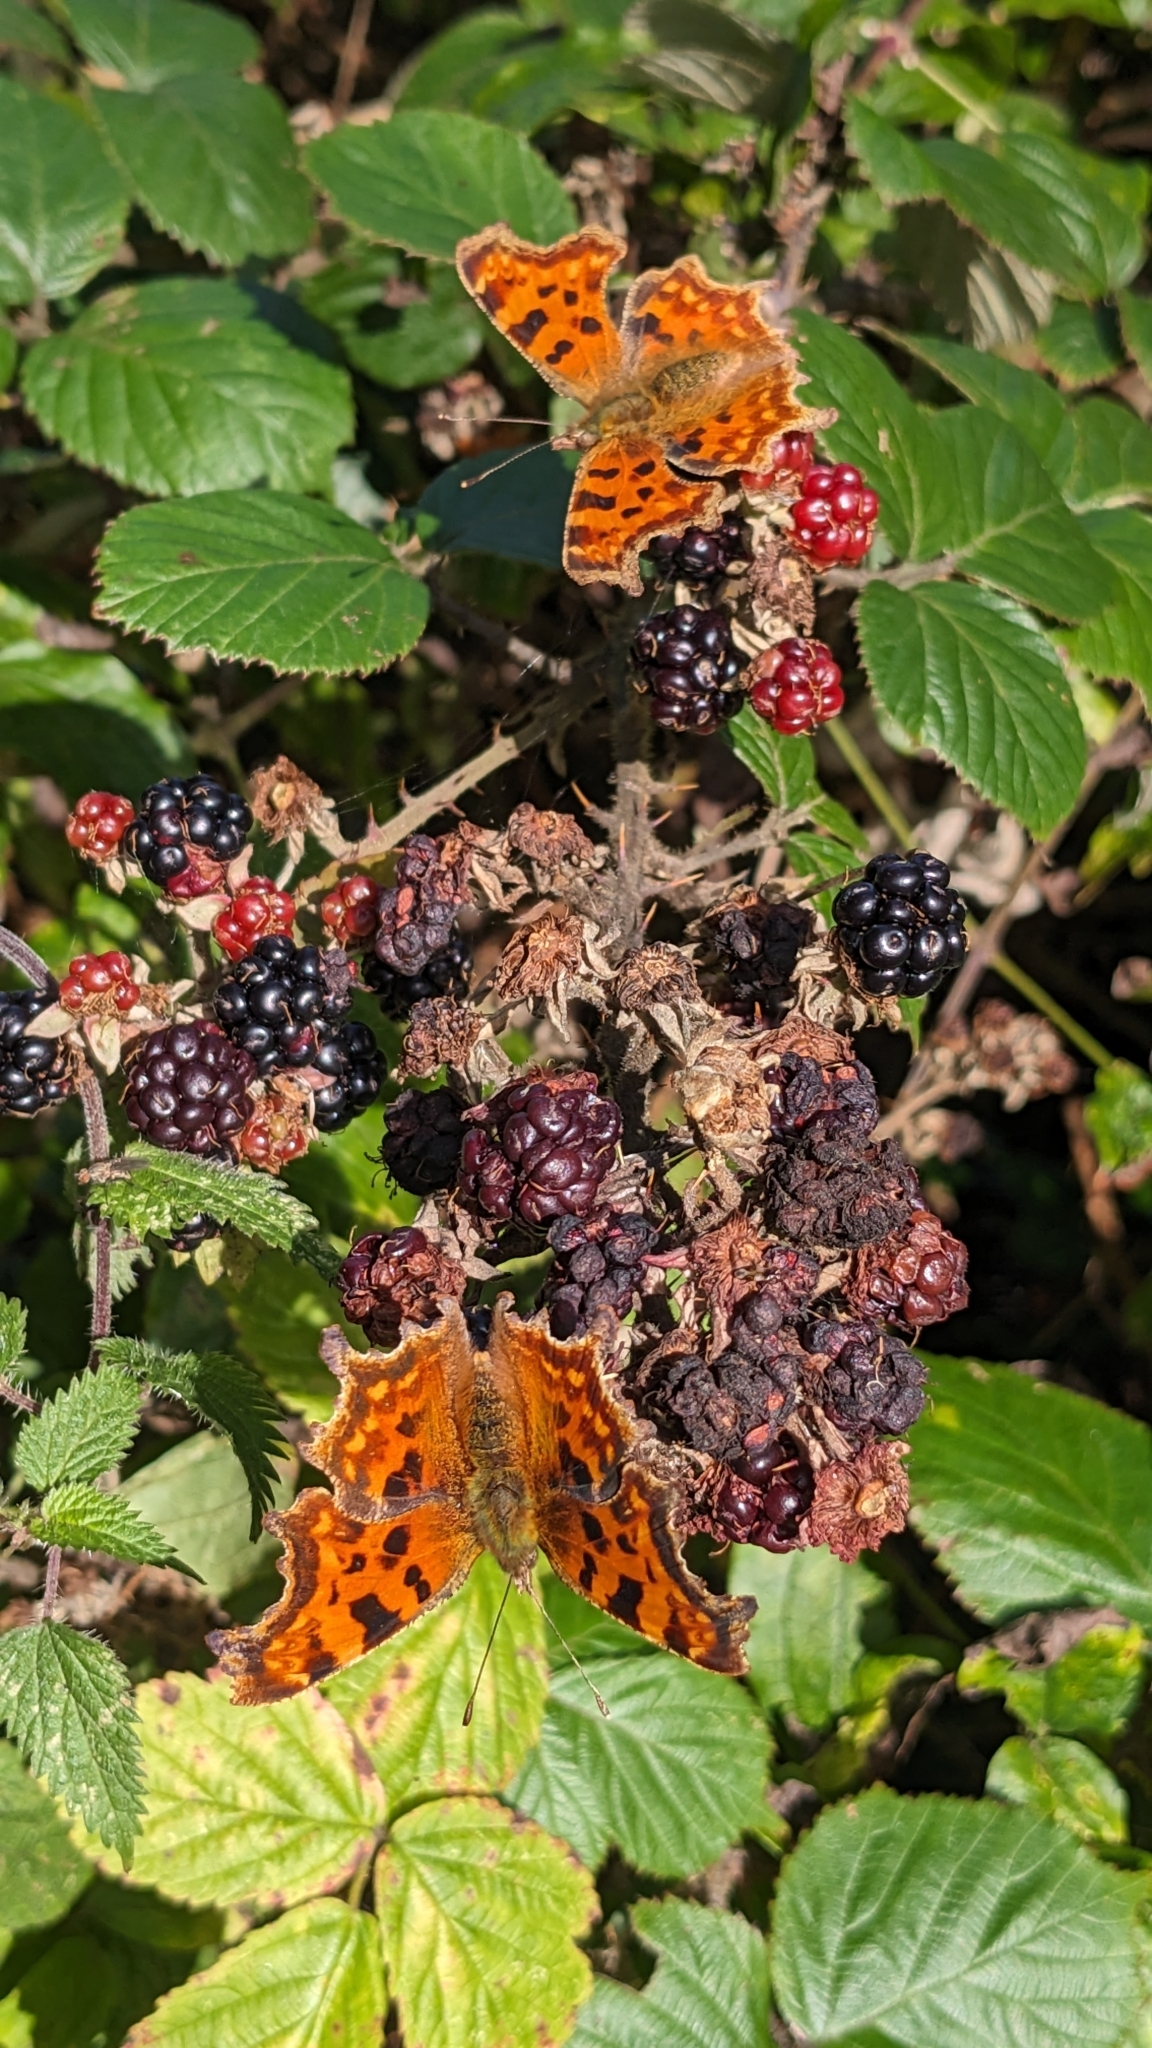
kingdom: Animalia
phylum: Arthropoda
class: Insecta
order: Lepidoptera
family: Nymphalidae
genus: Polygonia
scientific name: Polygonia c-album
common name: Comma
